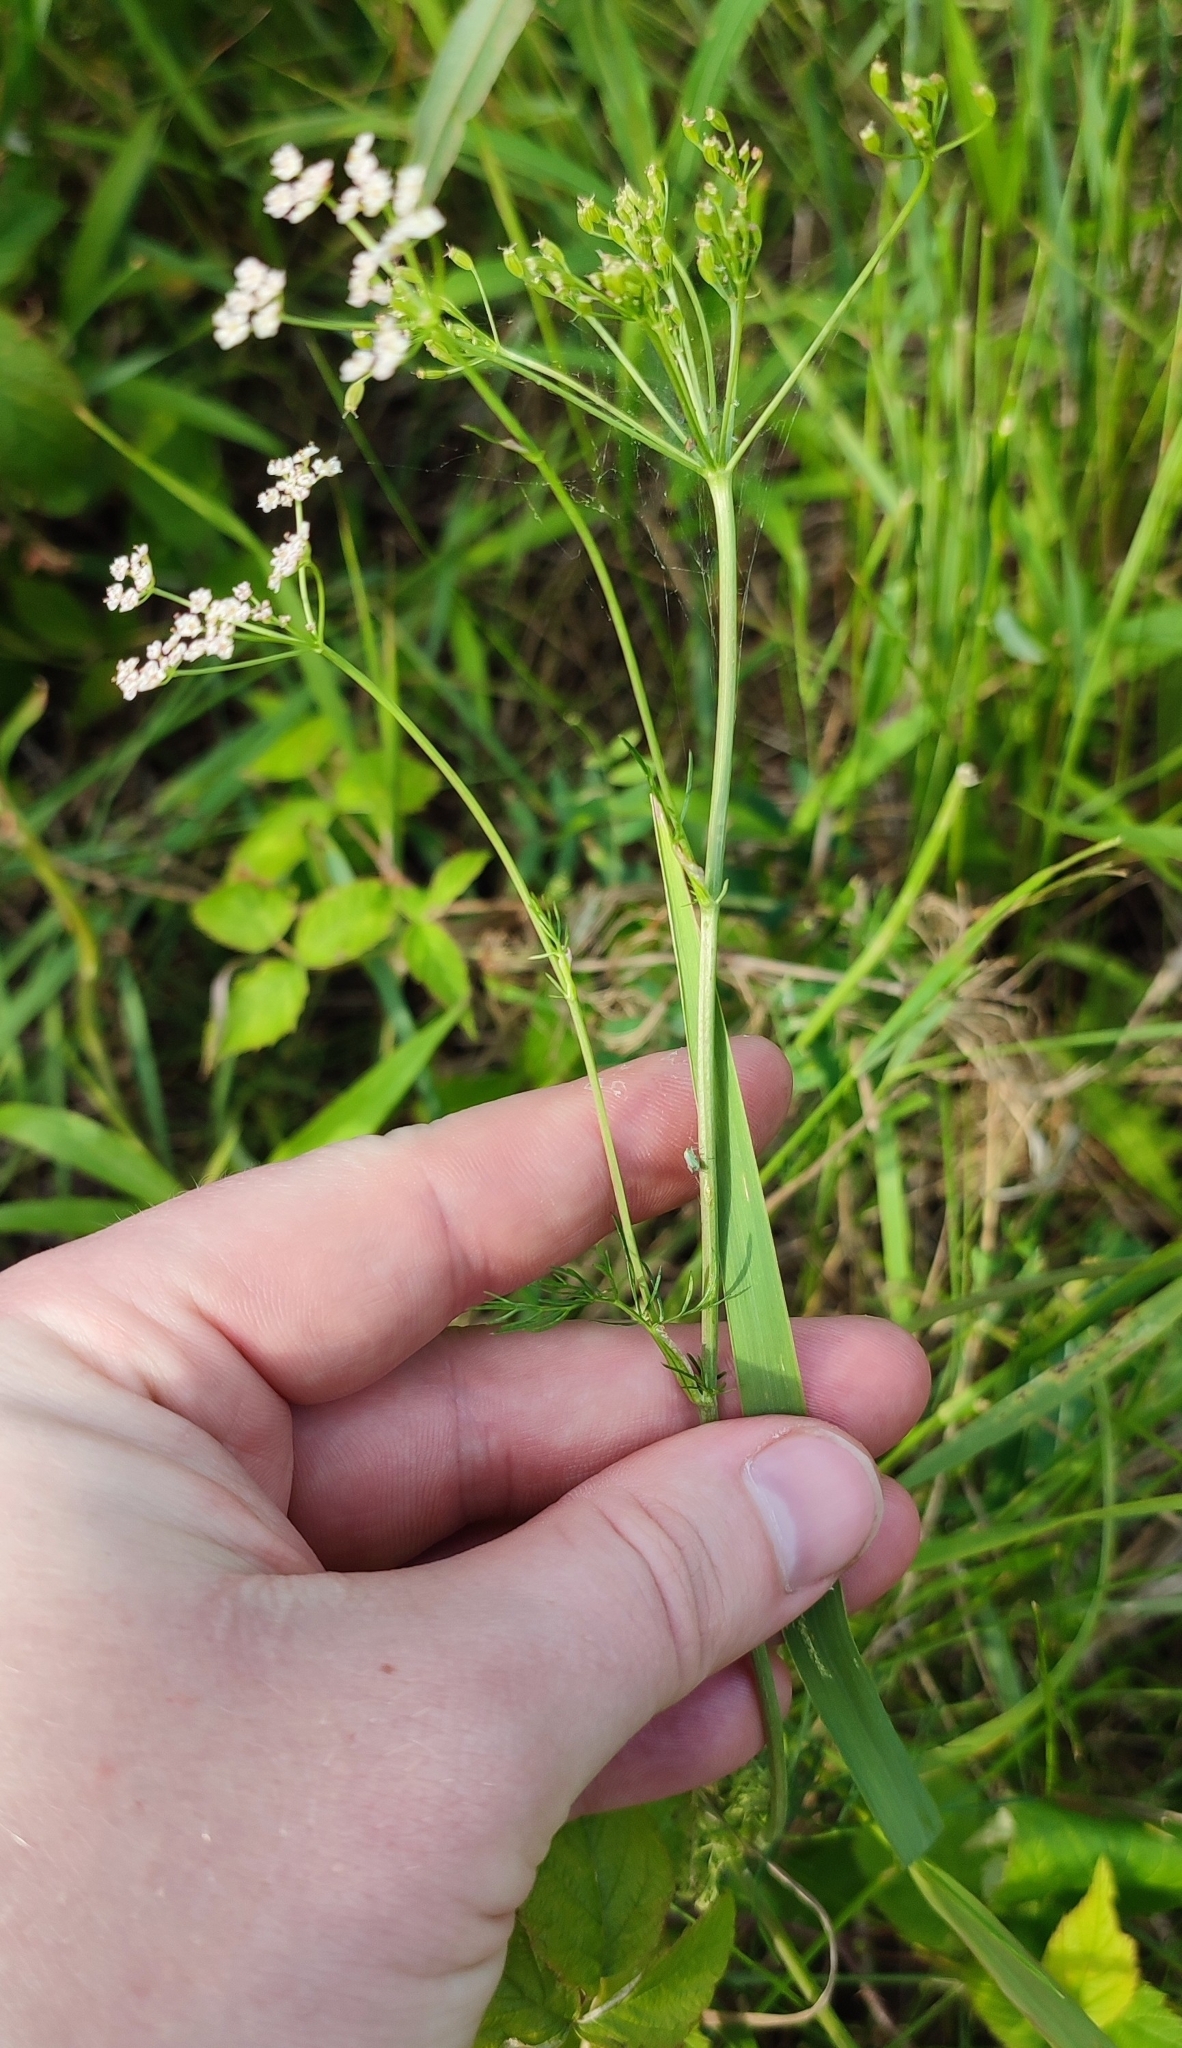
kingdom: Plantae
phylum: Tracheophyta
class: Magnoliopsida
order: Apiales
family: Apiaceae
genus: Carum
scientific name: Carum carvi
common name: Caraway
